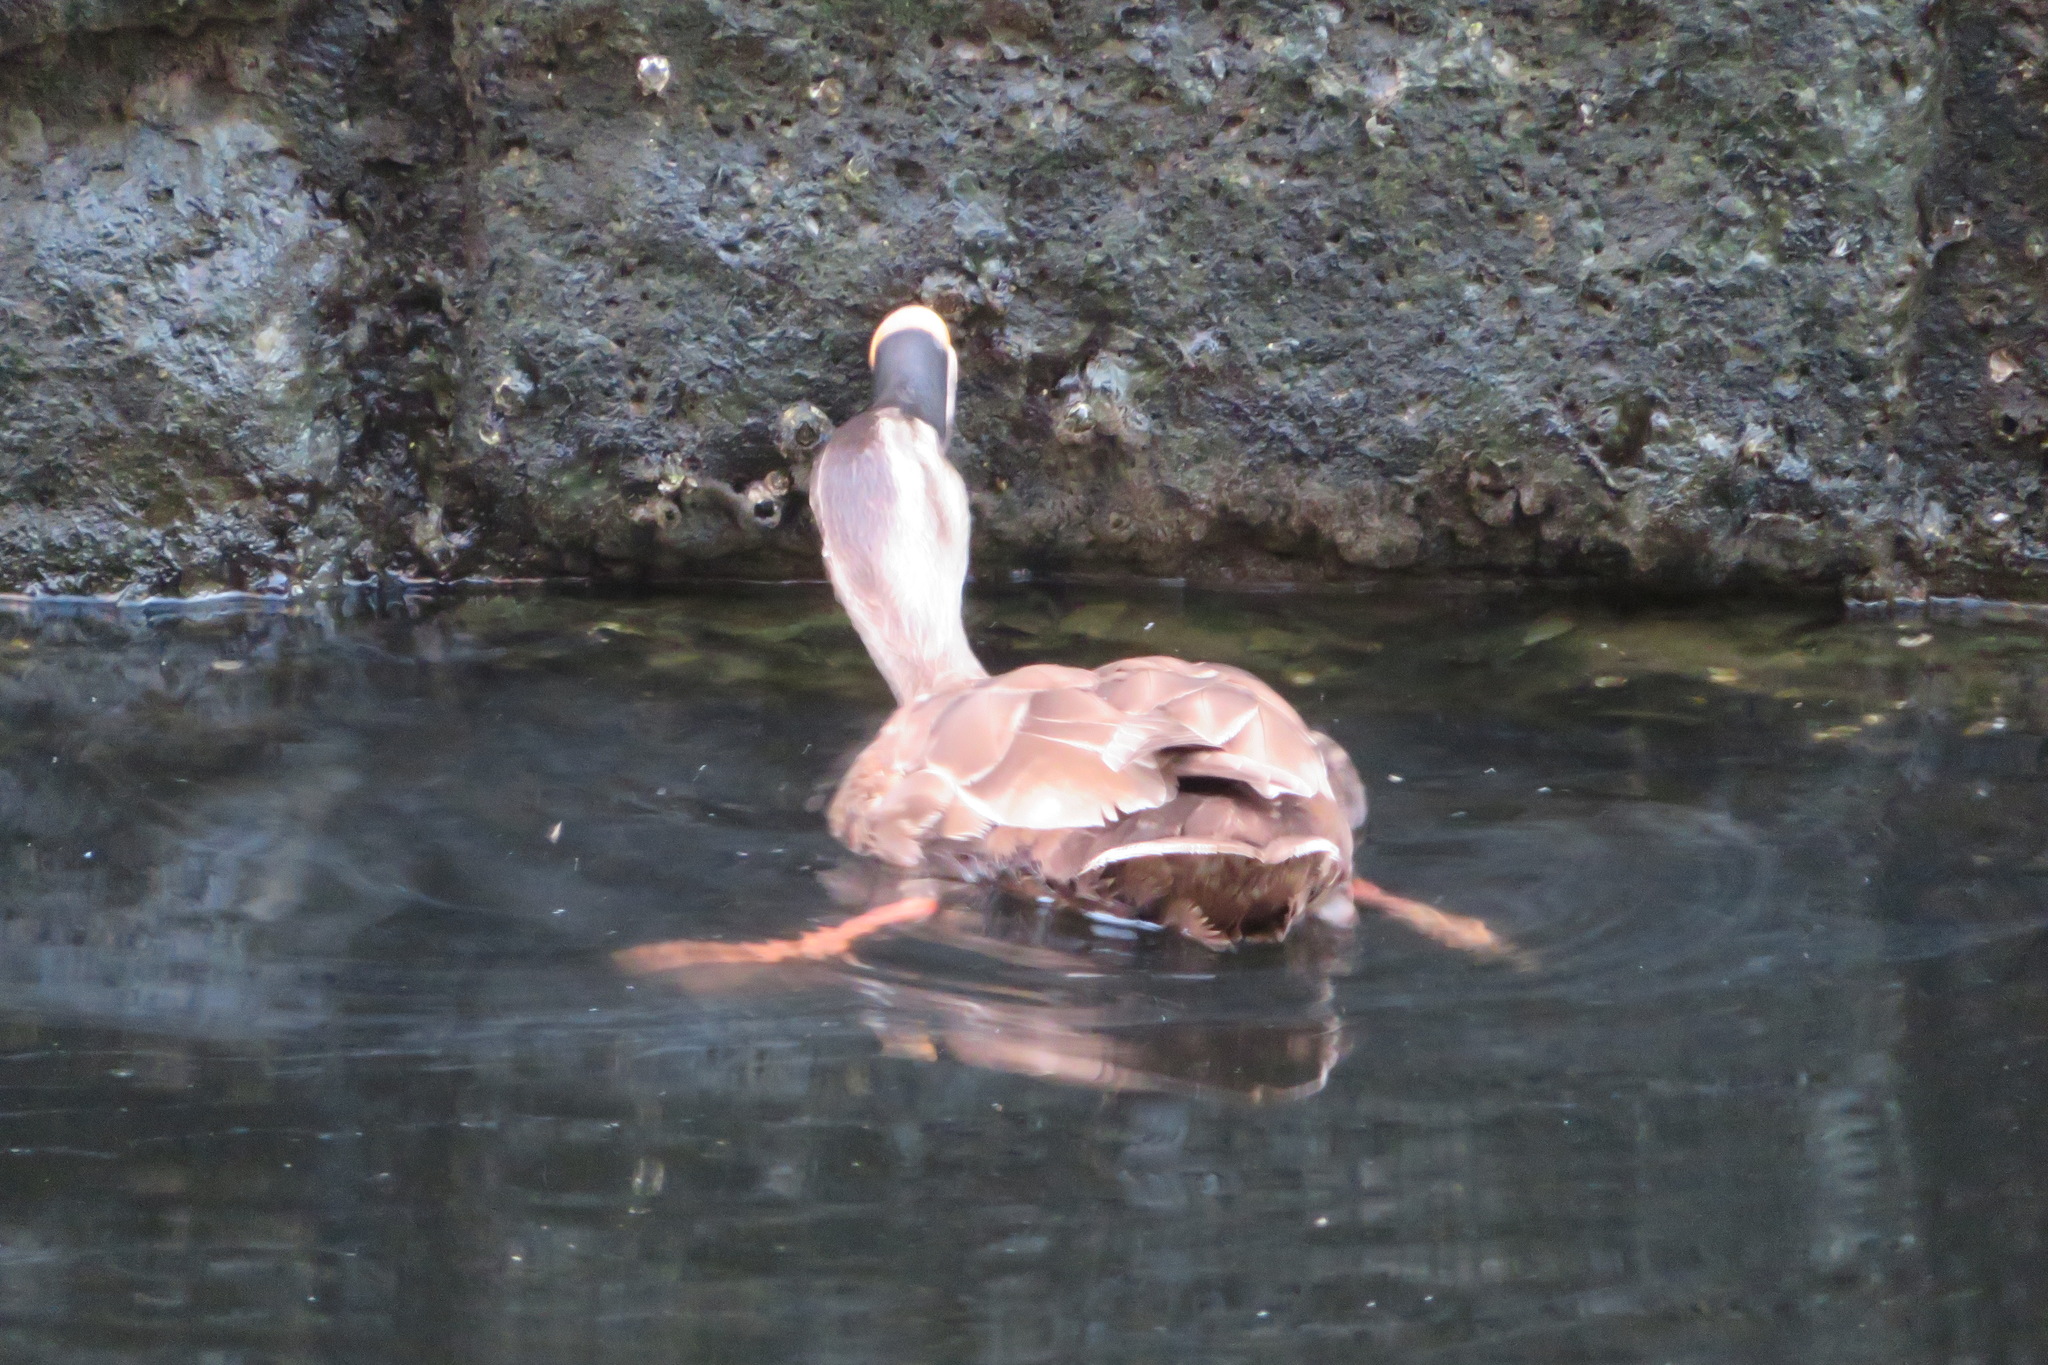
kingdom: Animalia
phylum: Chordata
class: Aves
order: Anseriformes
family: Anatidae
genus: Anas
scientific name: Anas zonorhyncha
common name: Eastern spot-billed duck
